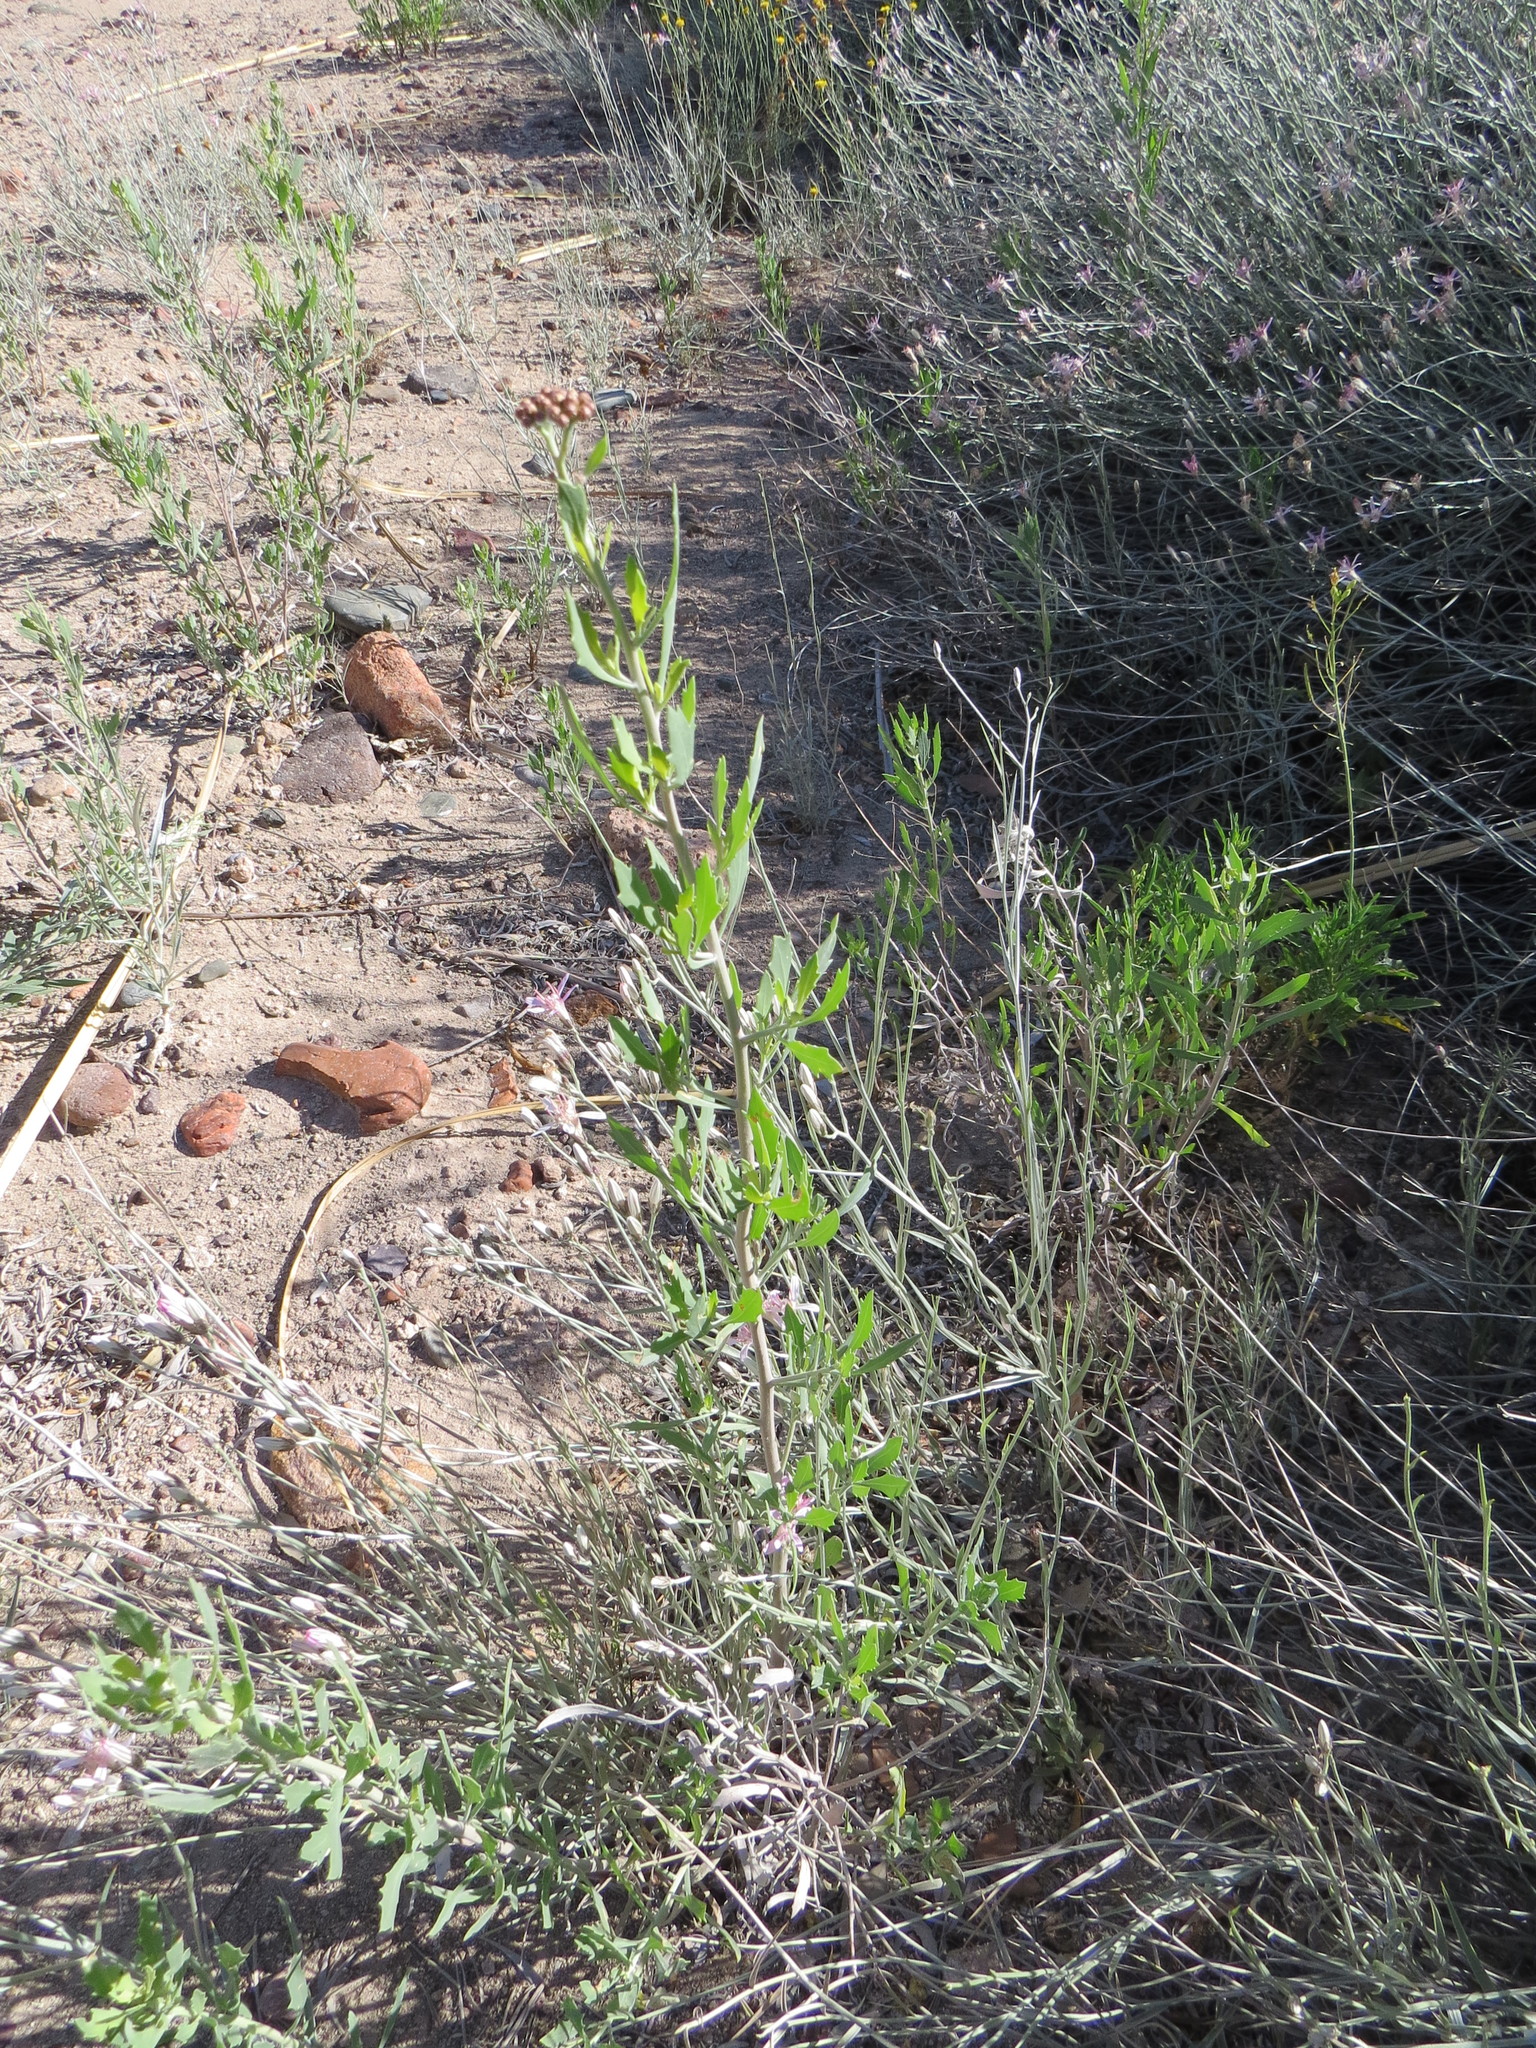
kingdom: Plantae
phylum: Tracheophyta
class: Magnoliopsida
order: Asterales
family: Asteraceae
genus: Tessaria
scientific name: Tessaria absinthioides
